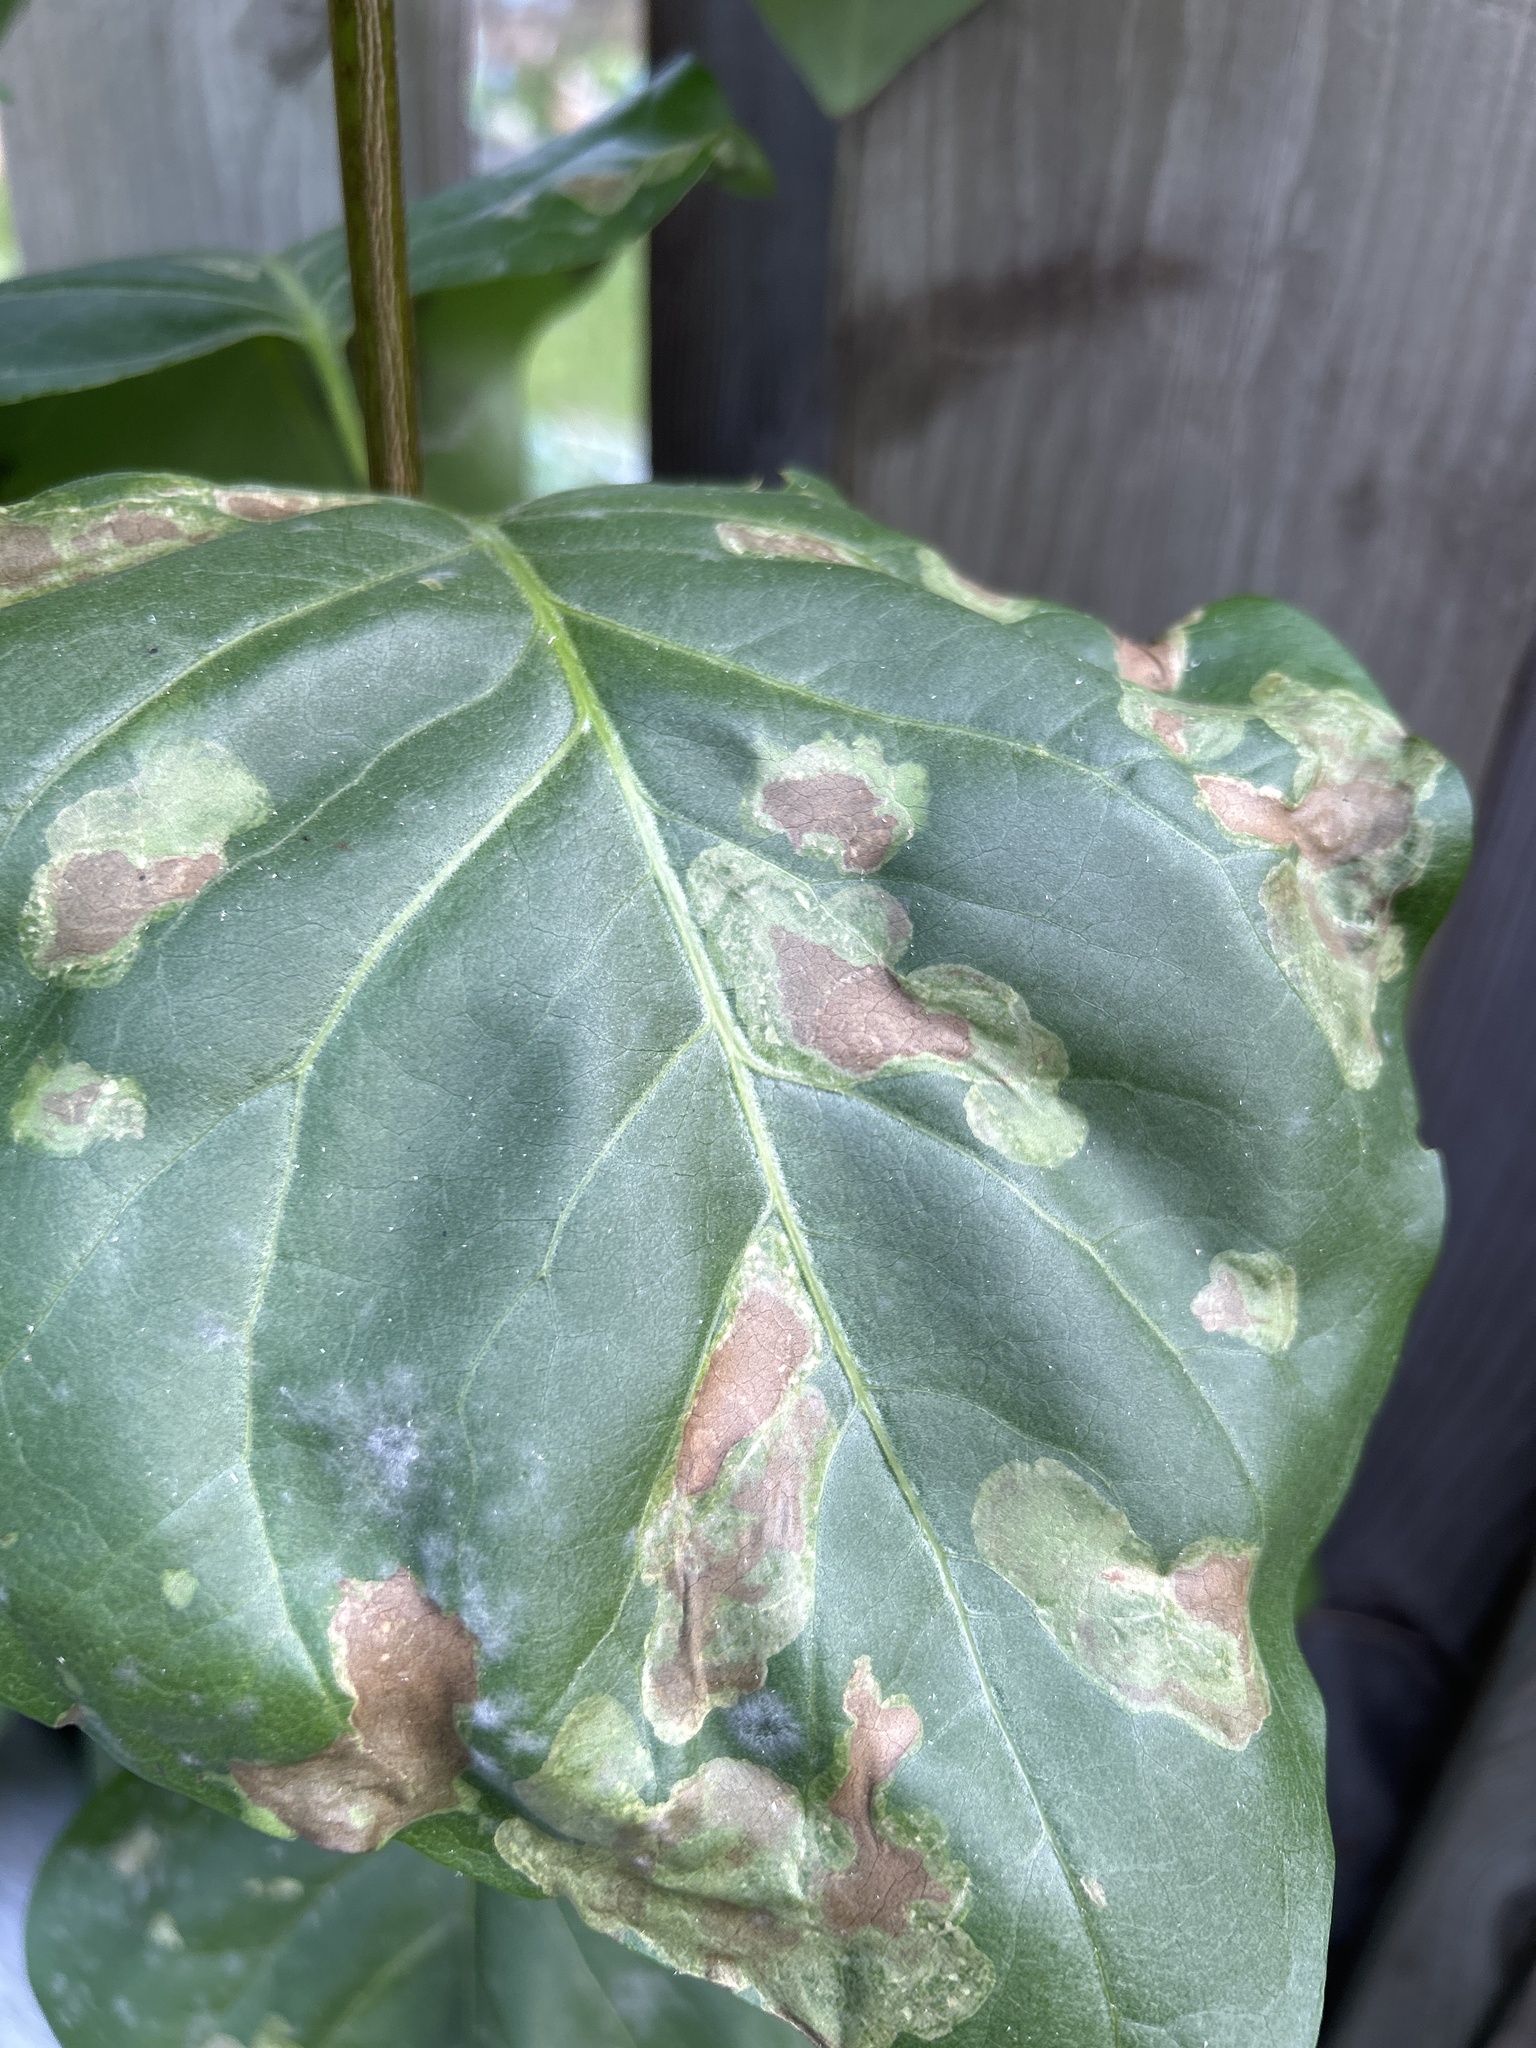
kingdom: Animalia
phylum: Arthropoda
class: Insecta
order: Lepidoptera
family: Gracillariidae
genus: Gracillaria
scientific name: Gracillaria syringella
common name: Common slender
